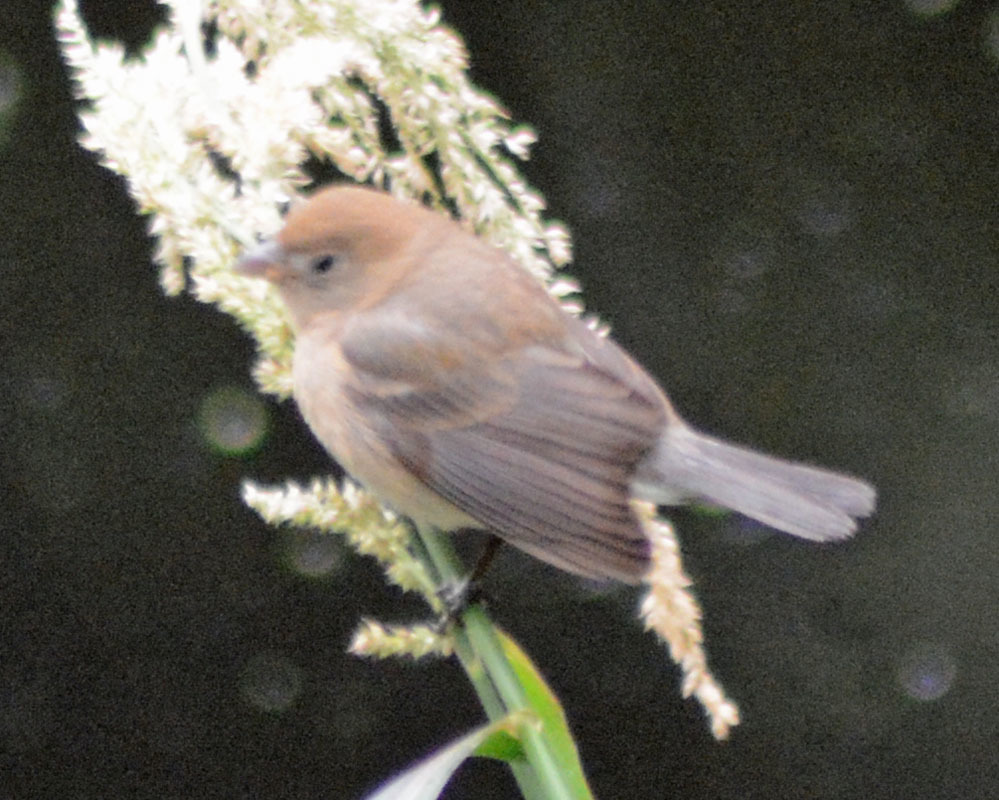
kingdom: Animalia
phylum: Chordata
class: Aves
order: Passeriformes
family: Cardinalidae
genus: Passerina
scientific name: Passerina versicolor
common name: Varied bunting
